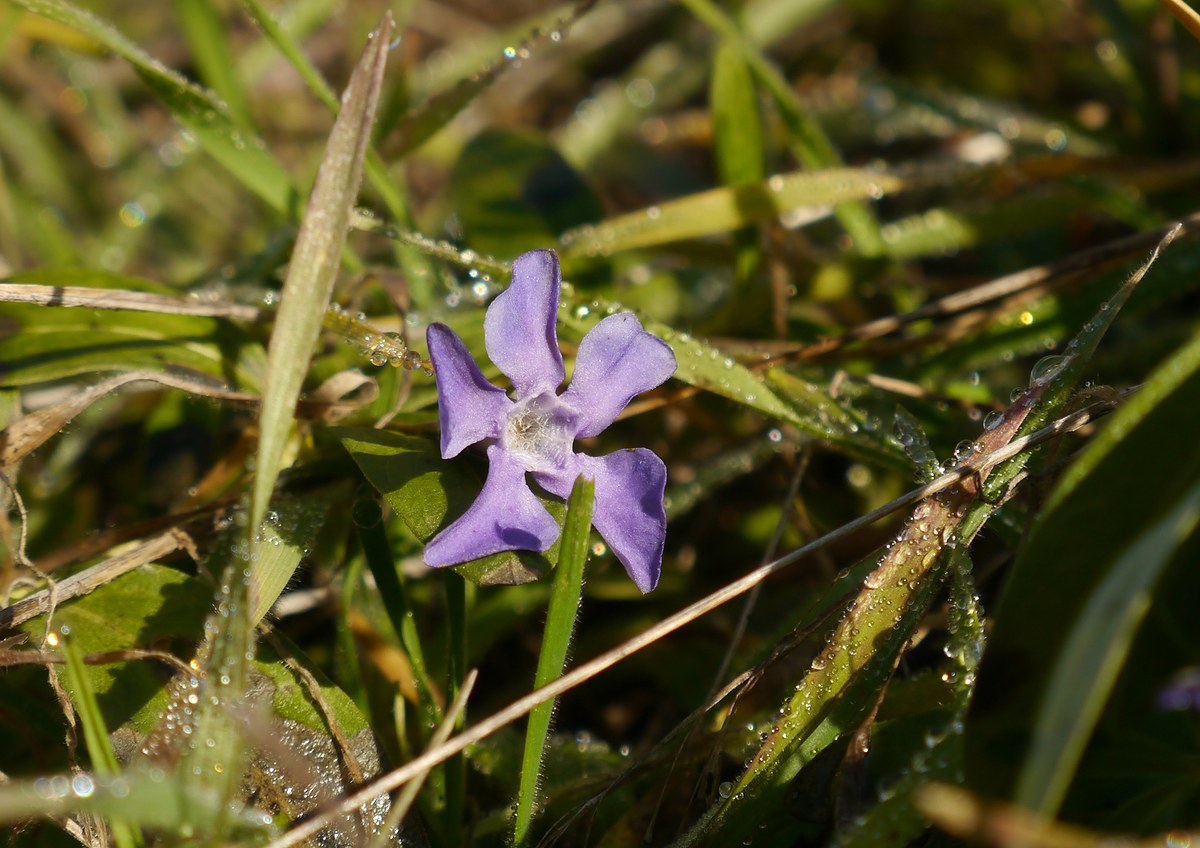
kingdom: Plantae
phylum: Tracheophyta
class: Magnoliopsida
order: Gentianales
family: Apocynaceae
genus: Vinca
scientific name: Vinca herbacea
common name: Herbaceous periwinkle
